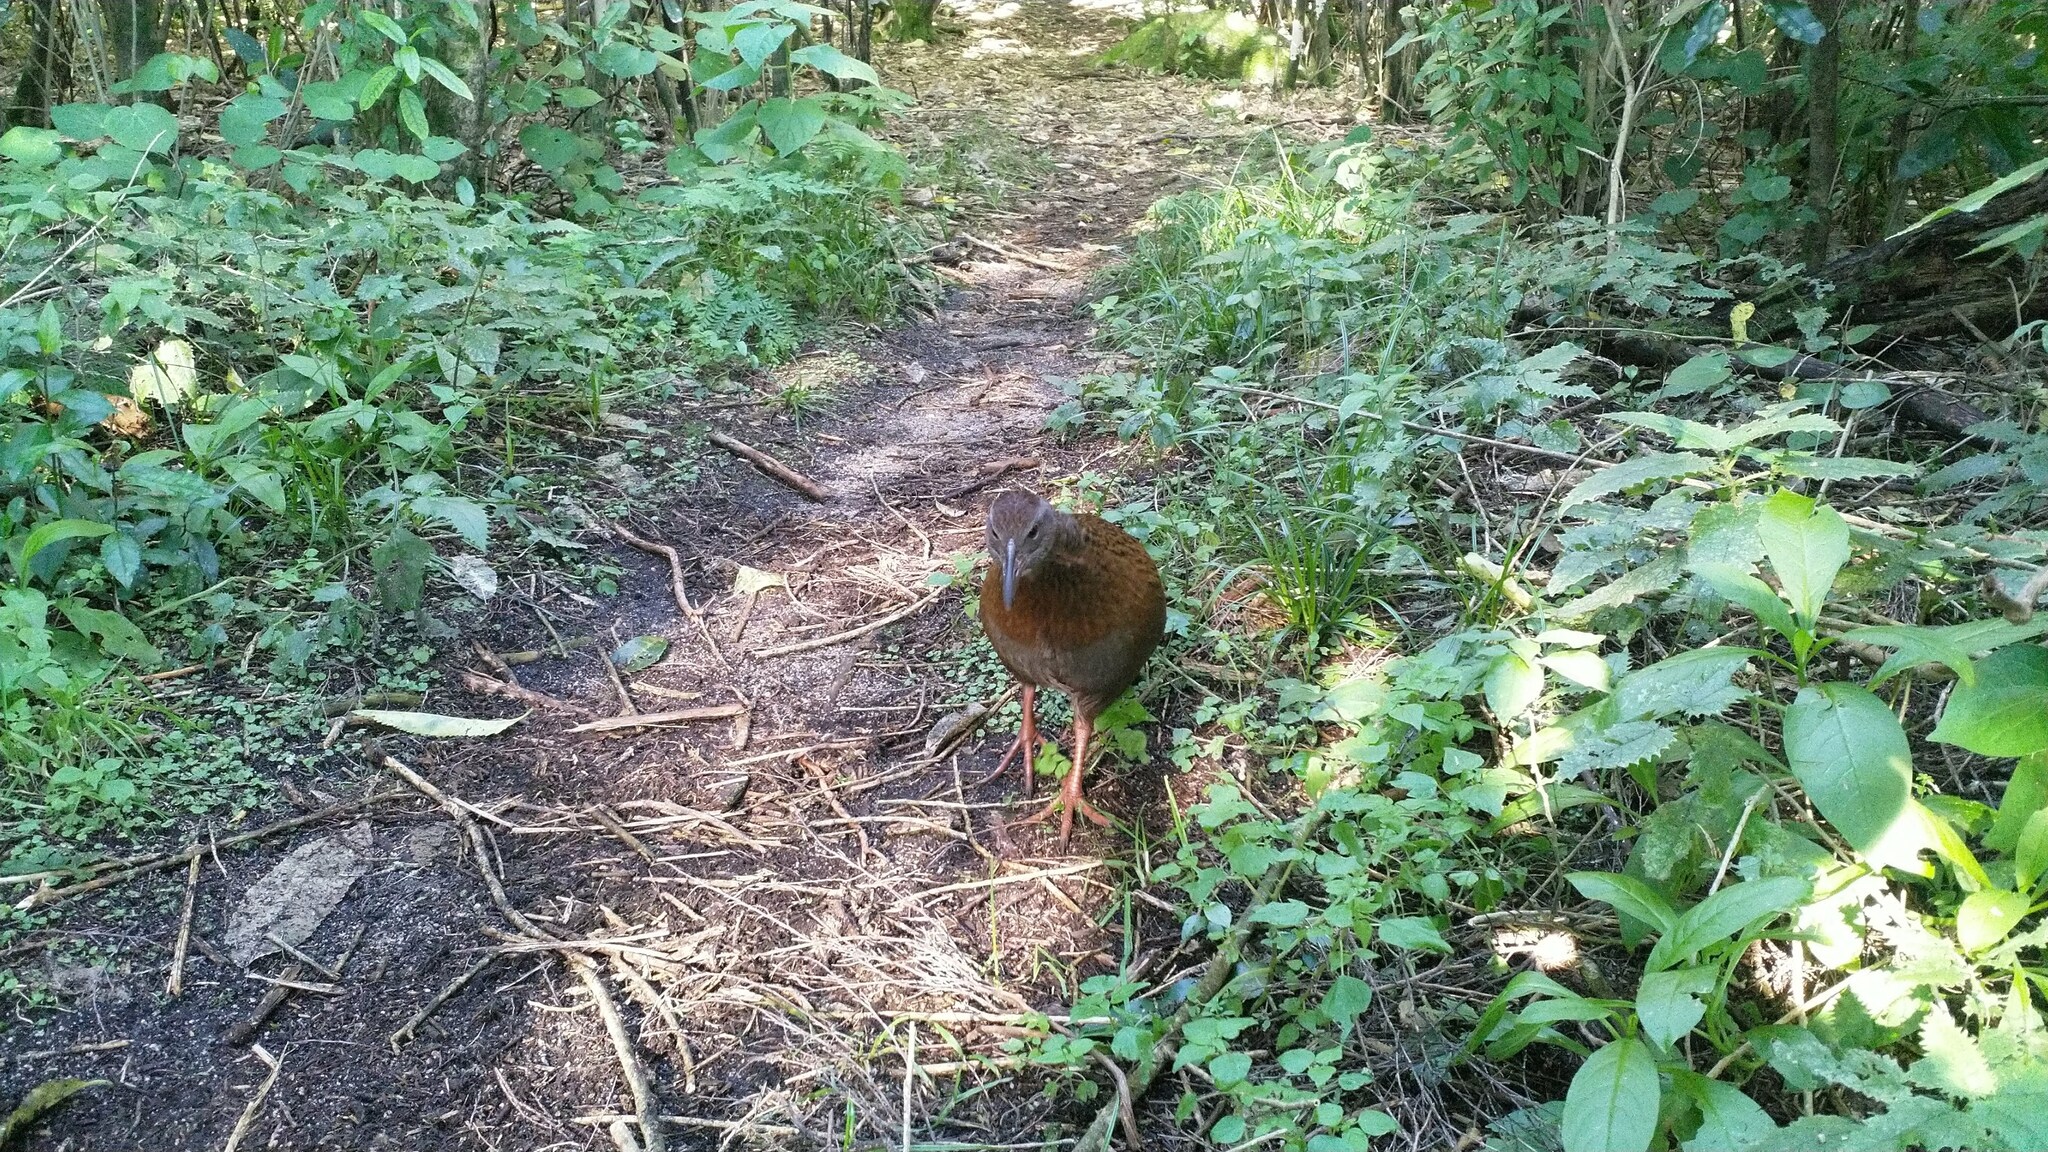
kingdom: Animalia
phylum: Chordata
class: Aves
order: Gruiformes
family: Rallidae
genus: Gallirallus
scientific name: Gallirallus australis
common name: Weka
